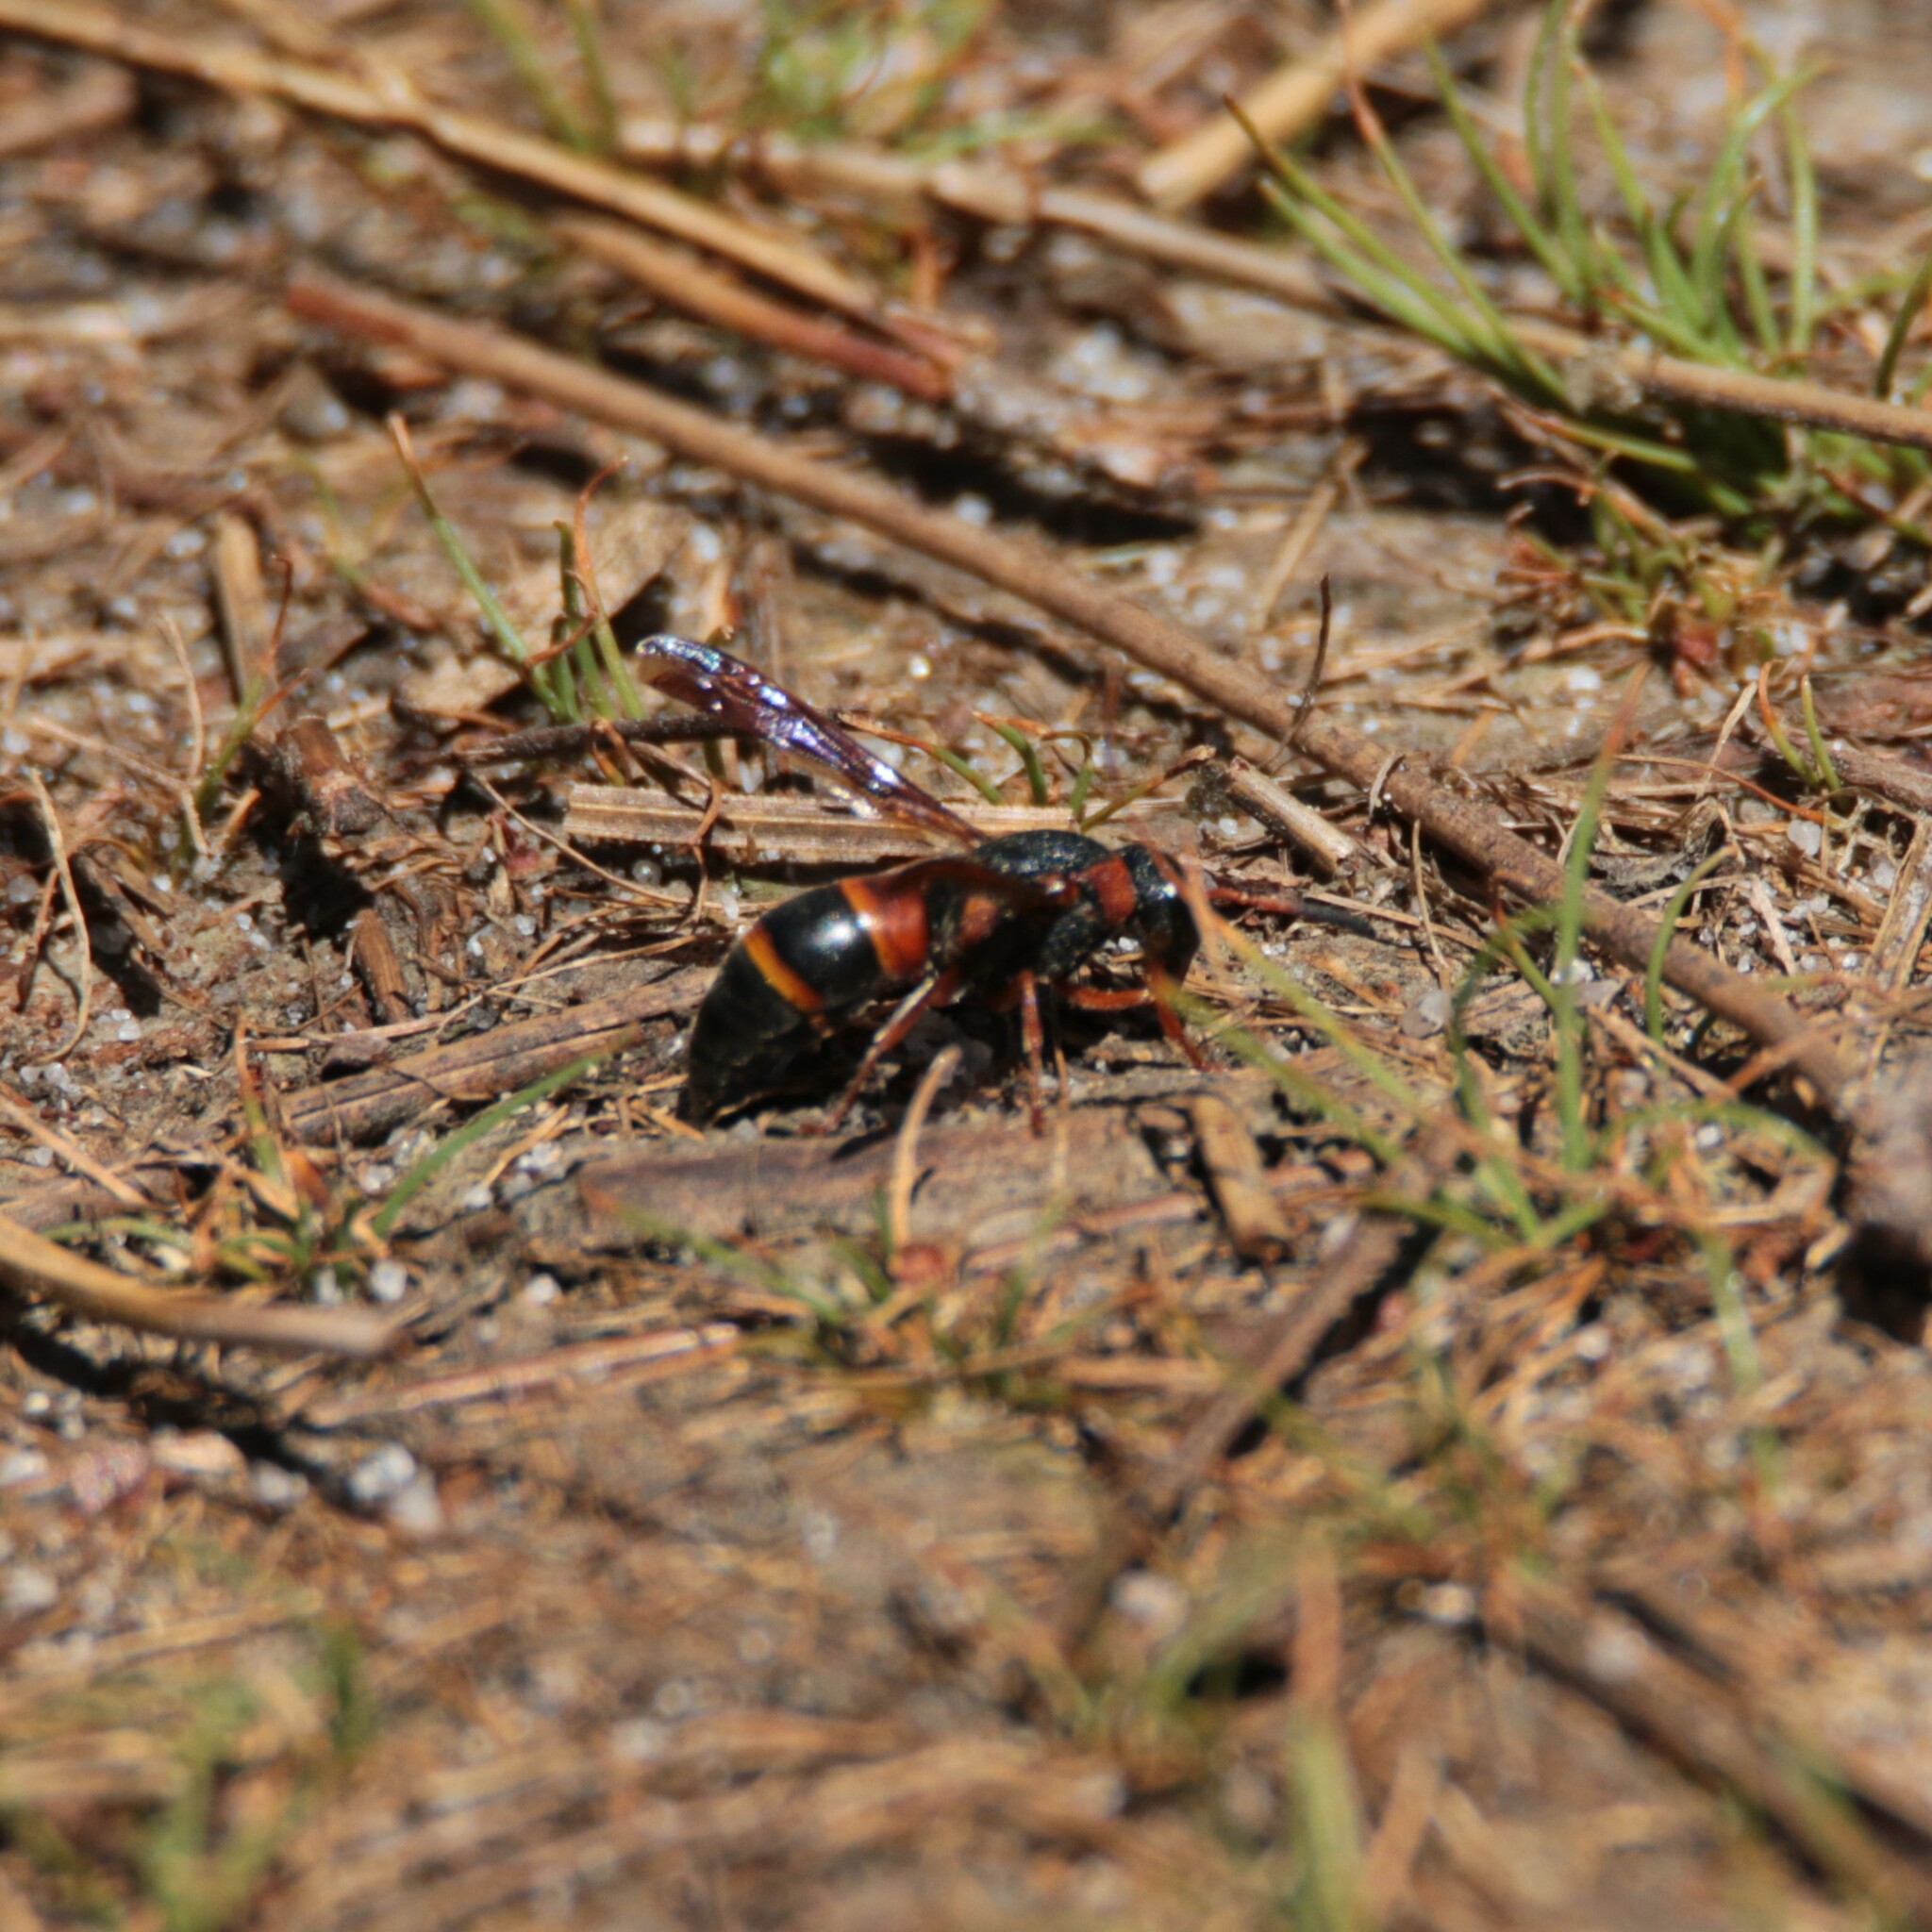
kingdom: Animalia
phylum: Arthropoda
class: Insecta
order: Hymenoptera
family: Eumenidae
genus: Pachodynerus
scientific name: Pachodynerus erynnis
